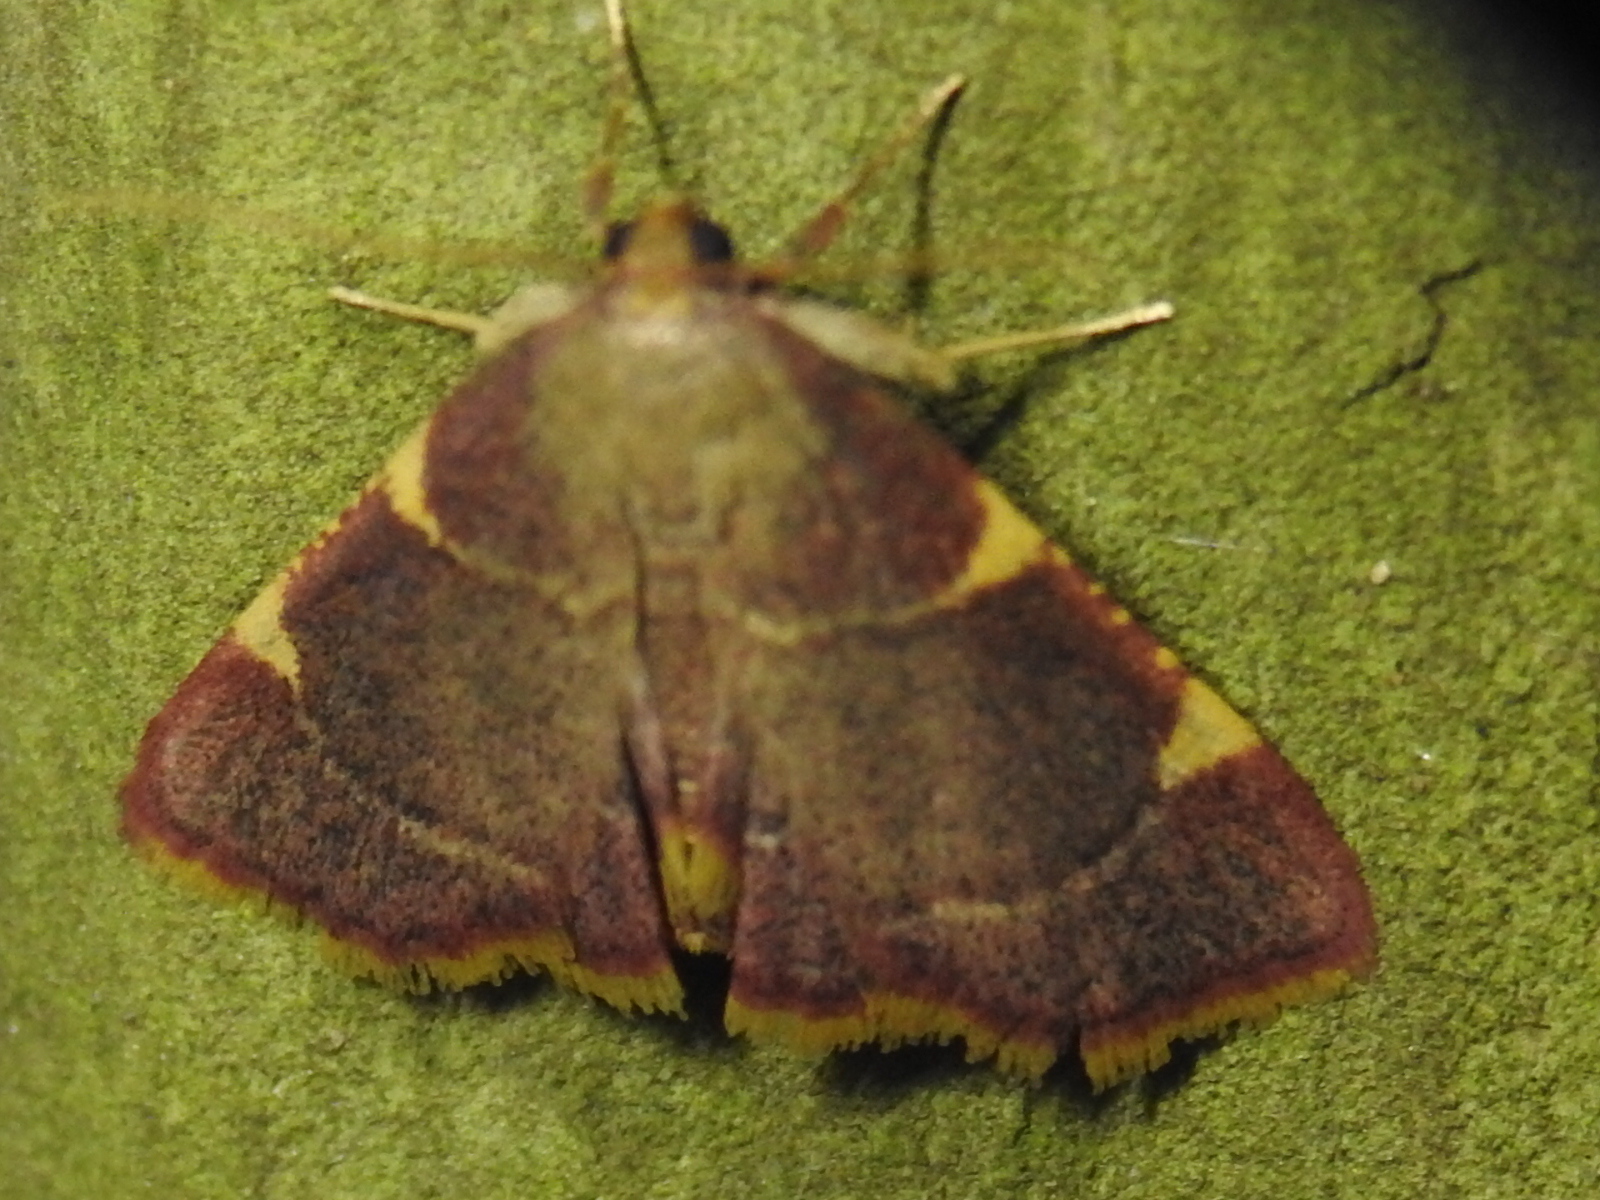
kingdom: Animalia
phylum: Arthropoda
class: Insecta
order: Lepidoptera
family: Pyralidae
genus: Hypsopygia
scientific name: Hypsopygia olinalis
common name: Yellow-fringed dolichomia moth
